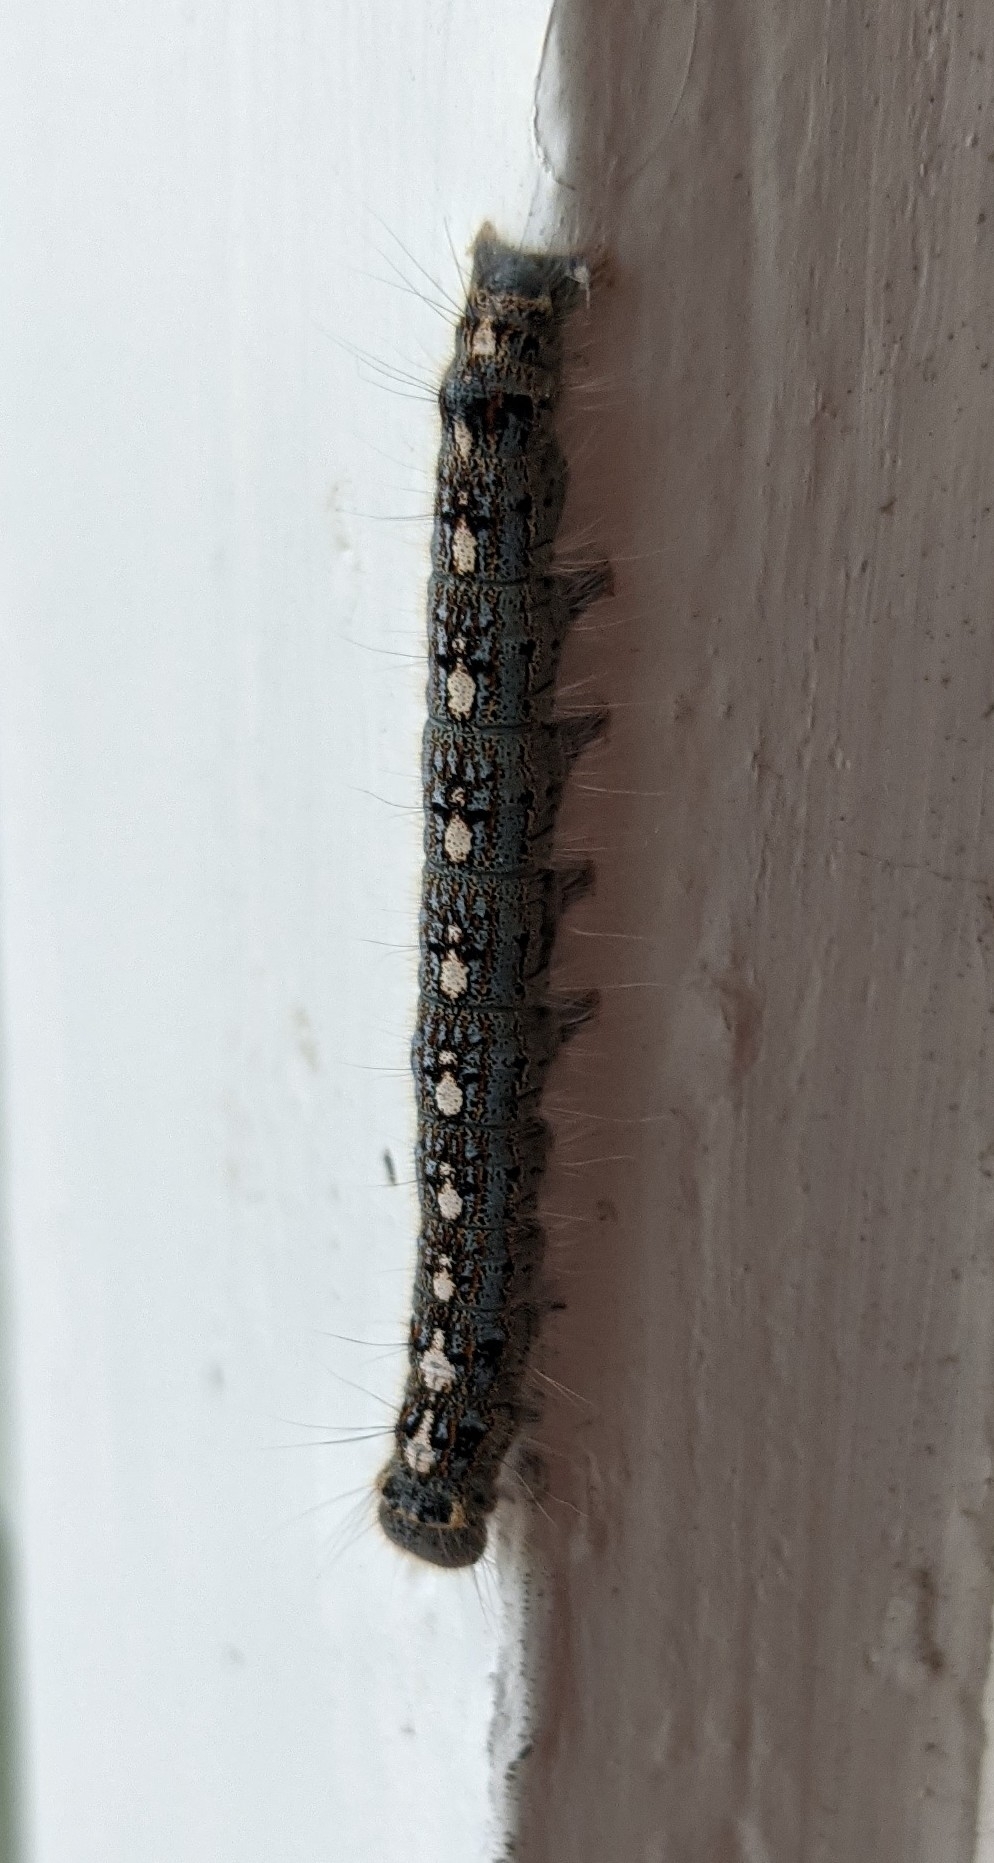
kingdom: Animalia
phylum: Arthropoda
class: Insecta
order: Lepidoptera
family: Lasiocampidae
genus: Malacosoma
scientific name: Malacosoma disstria
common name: Forest tent caterpillar
